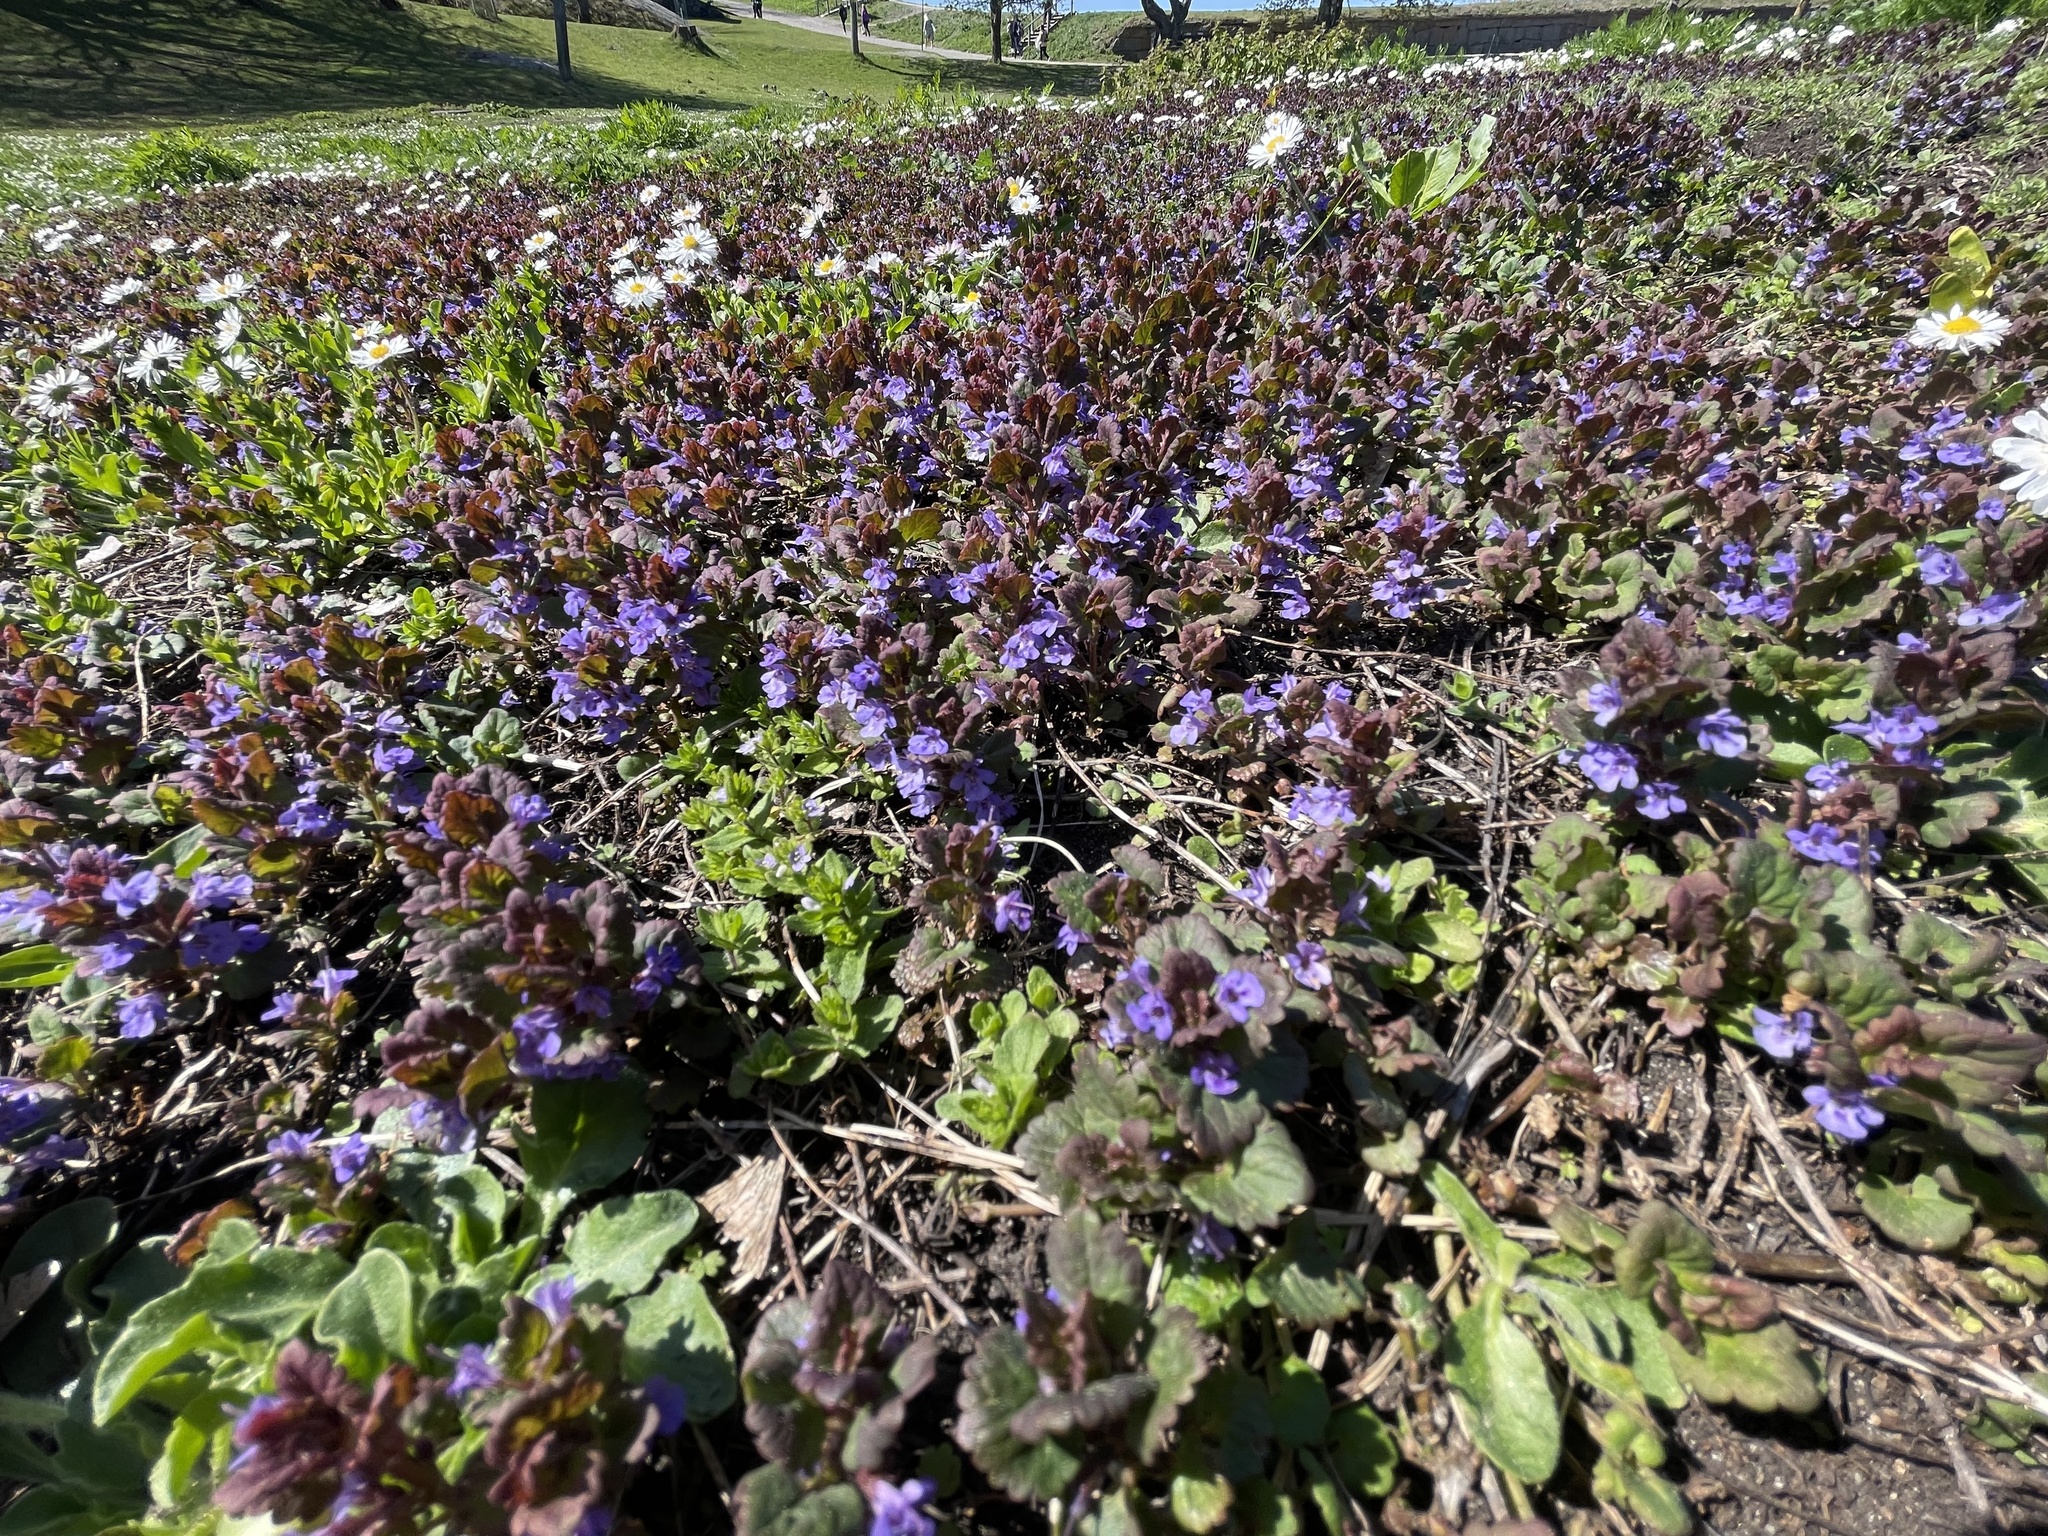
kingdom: Plantae
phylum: Tracheophyta
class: Magnoliopsida
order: Lamiales
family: Lamiaceae
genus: Glechoma
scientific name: Glechoma hederacea
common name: Ground ivy
